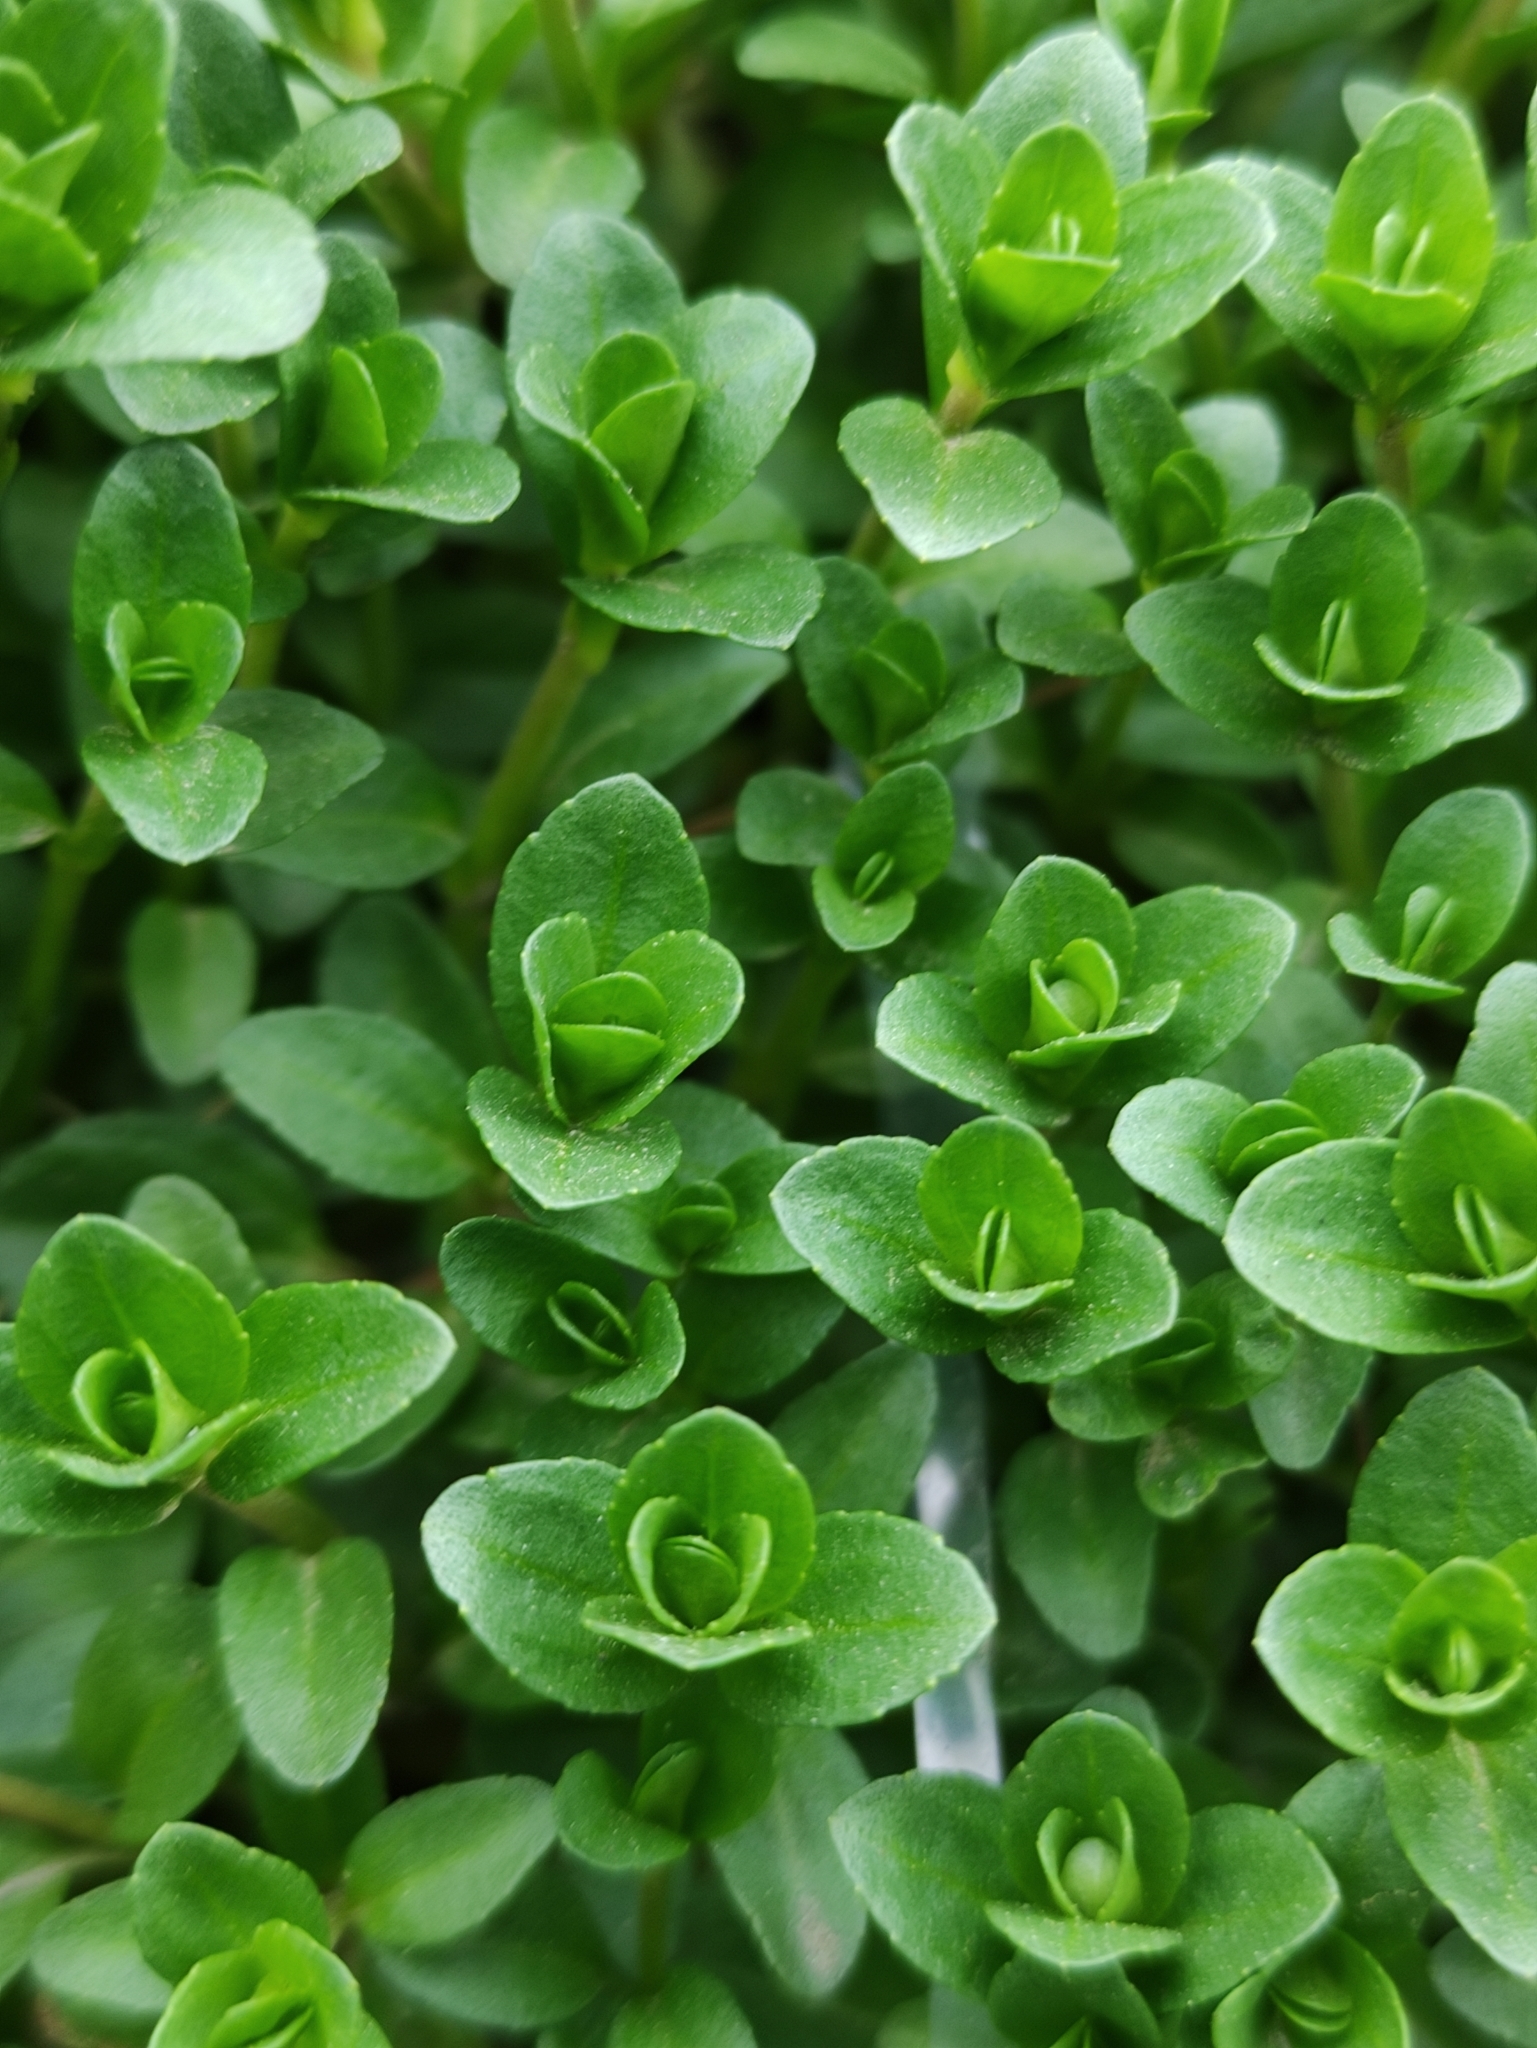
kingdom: Plantae
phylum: Tracheophyta
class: Magnoliopsida
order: Lamiales
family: Plantaginaceae
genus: Veronica
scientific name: Veronica serpyllifolia
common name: Thyme-leaved speedwell
